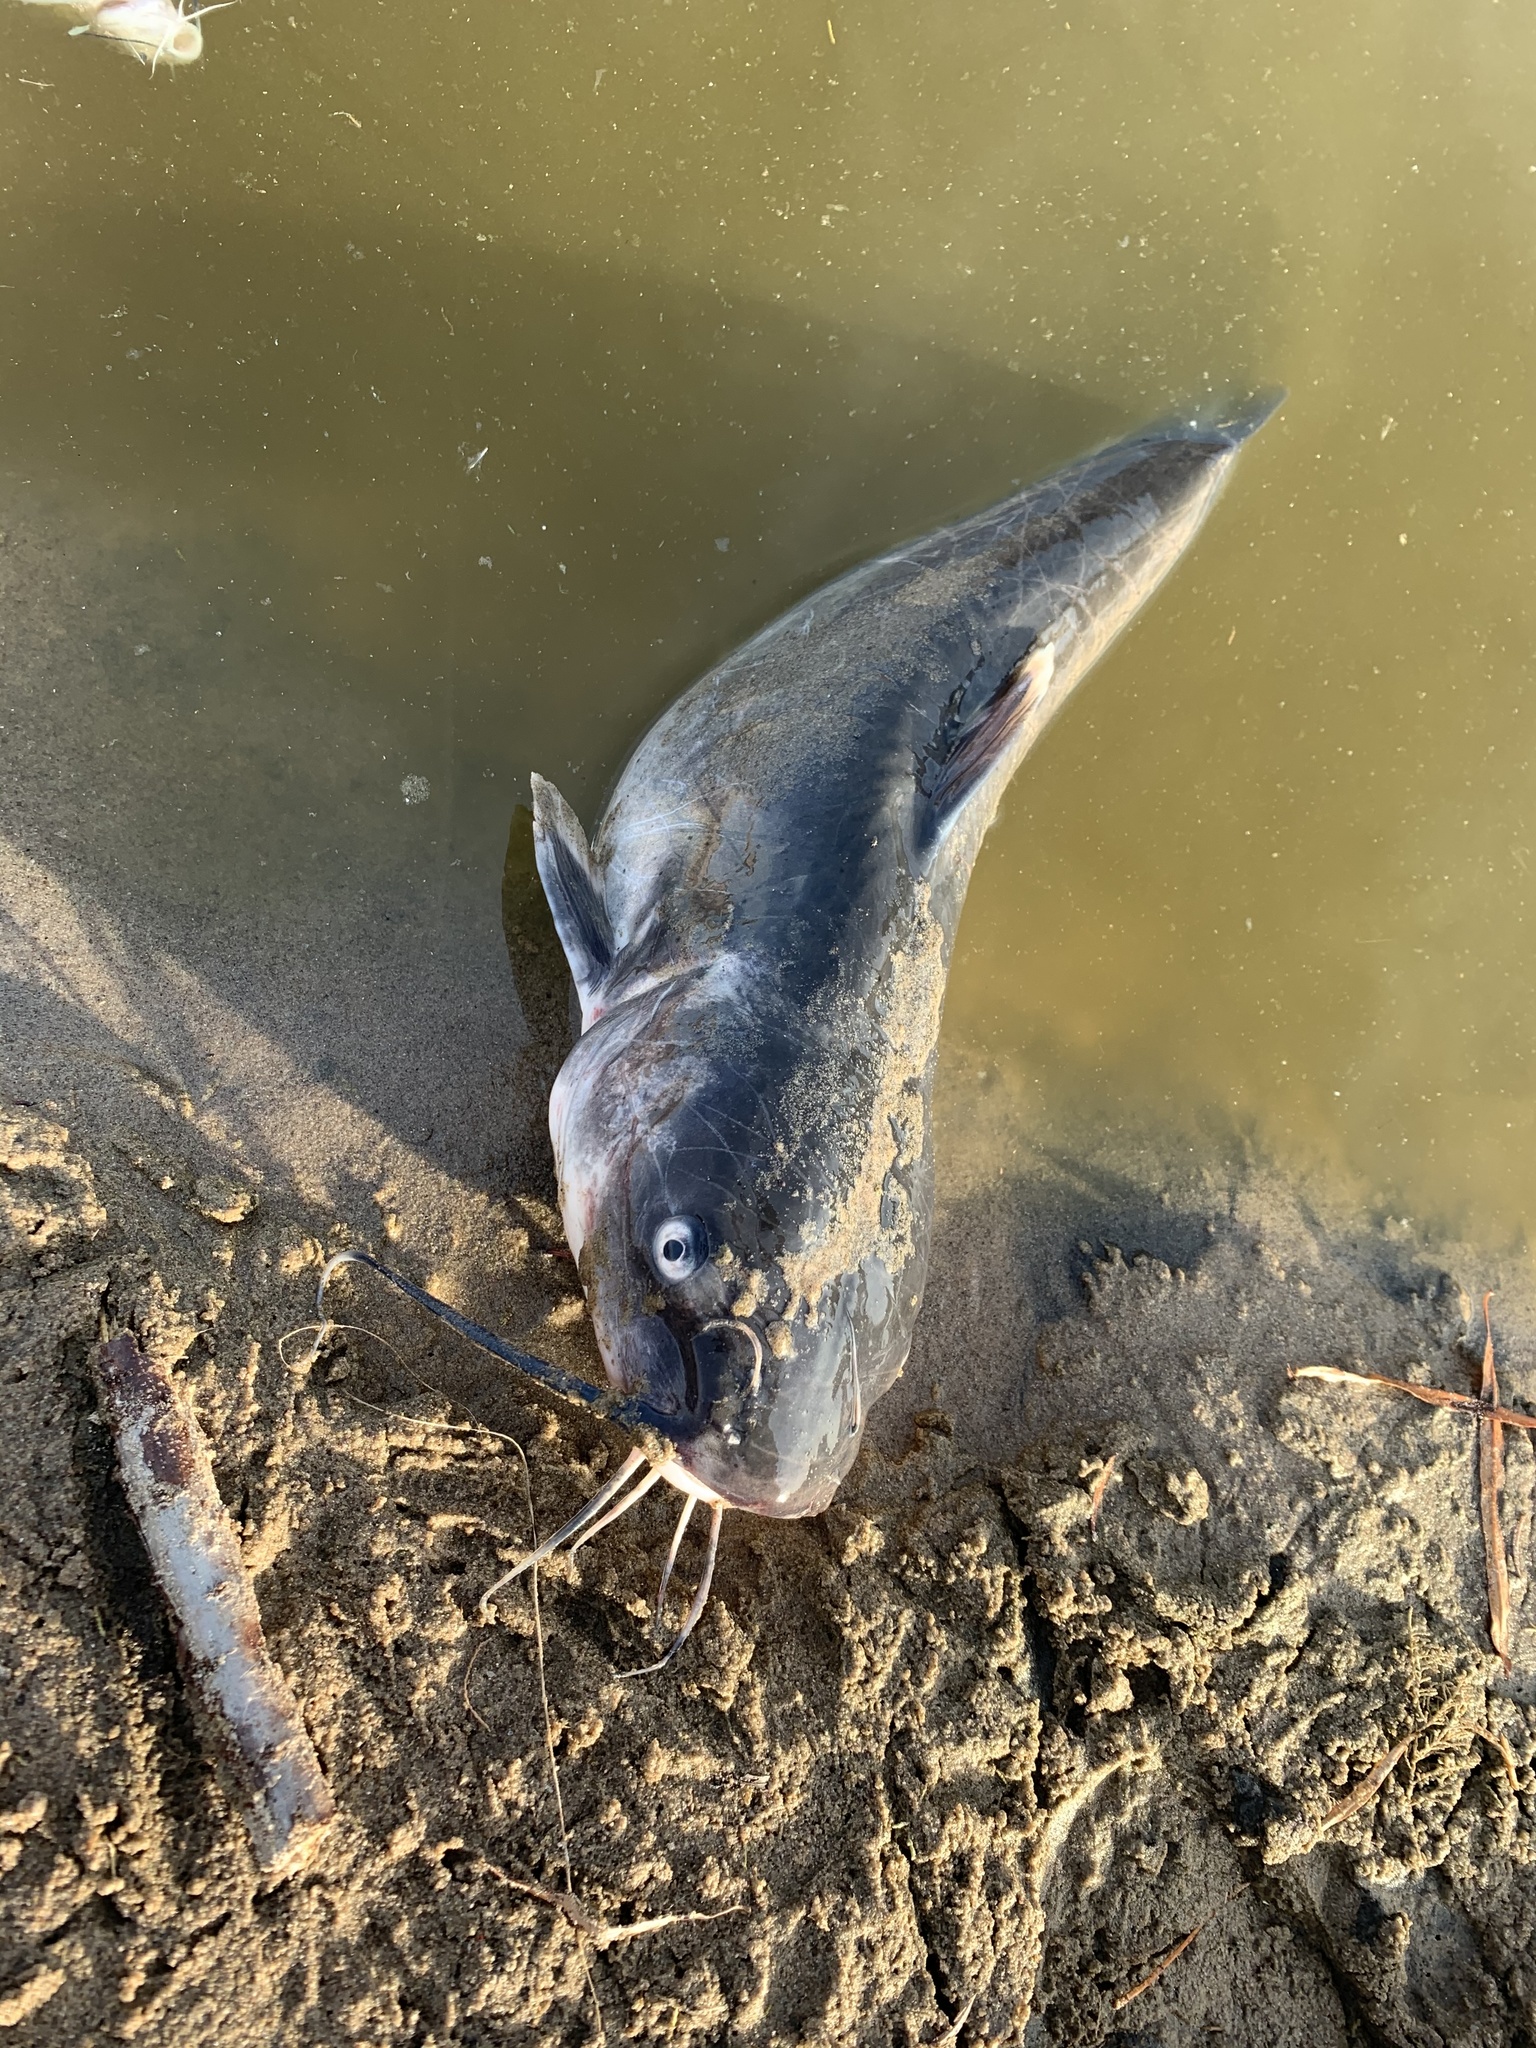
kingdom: Animalia
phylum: Chordata
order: Siluriformes
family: Ictaluridae
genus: Ictalurus
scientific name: Ictalurus punctatus
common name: Channel catfish
